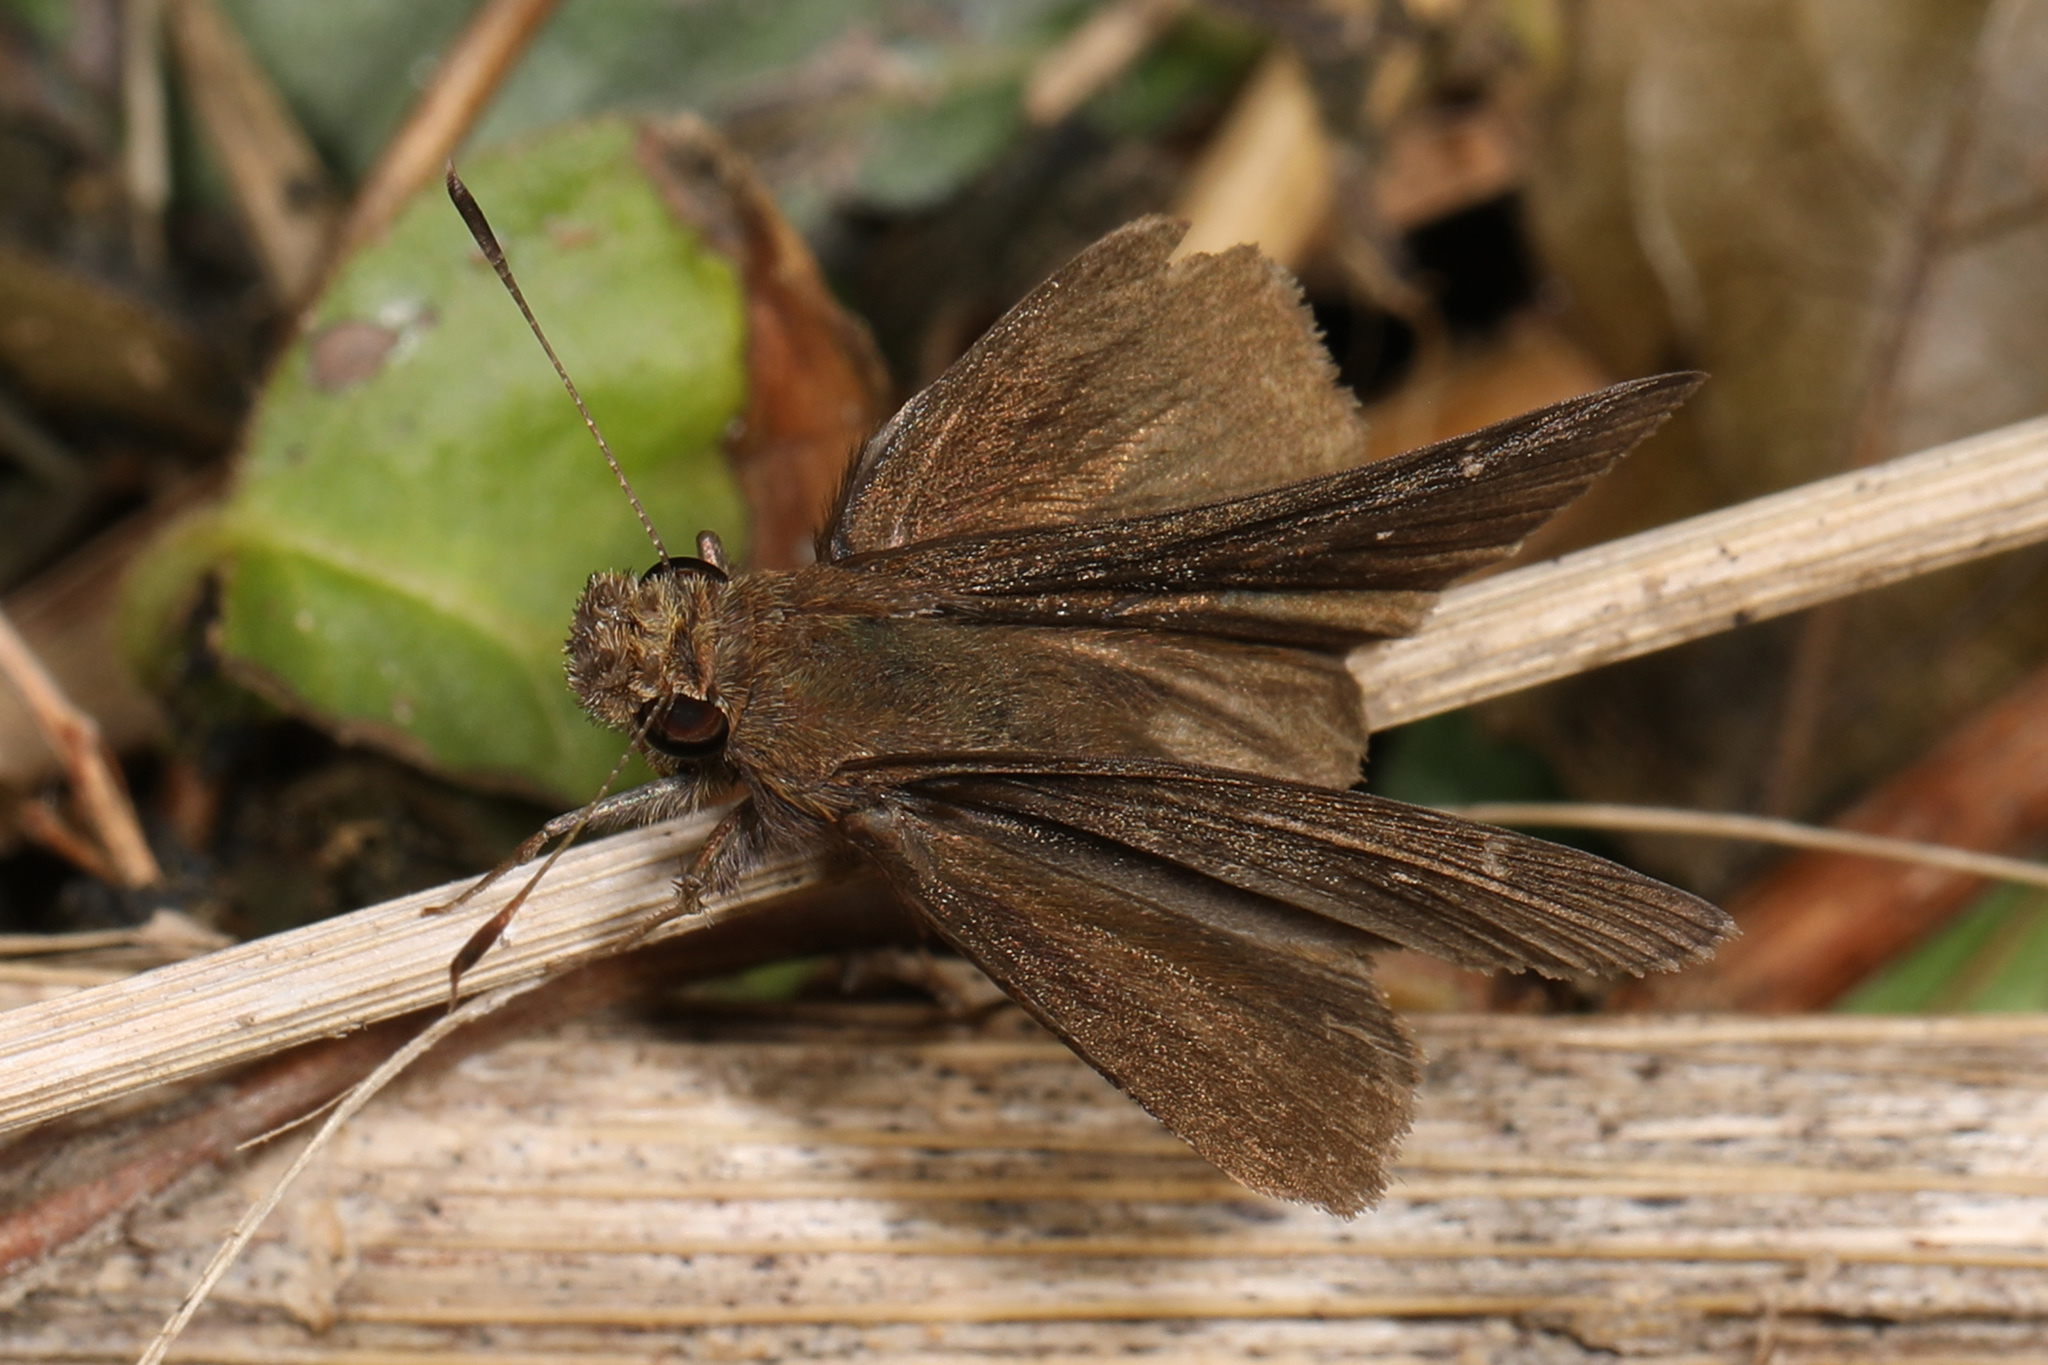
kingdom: Animalia
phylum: Arthropoda
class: Insecta
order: Lepidoptera
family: Hesperiidae
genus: Lerema
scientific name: Lerema accius
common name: Clouded skipper
